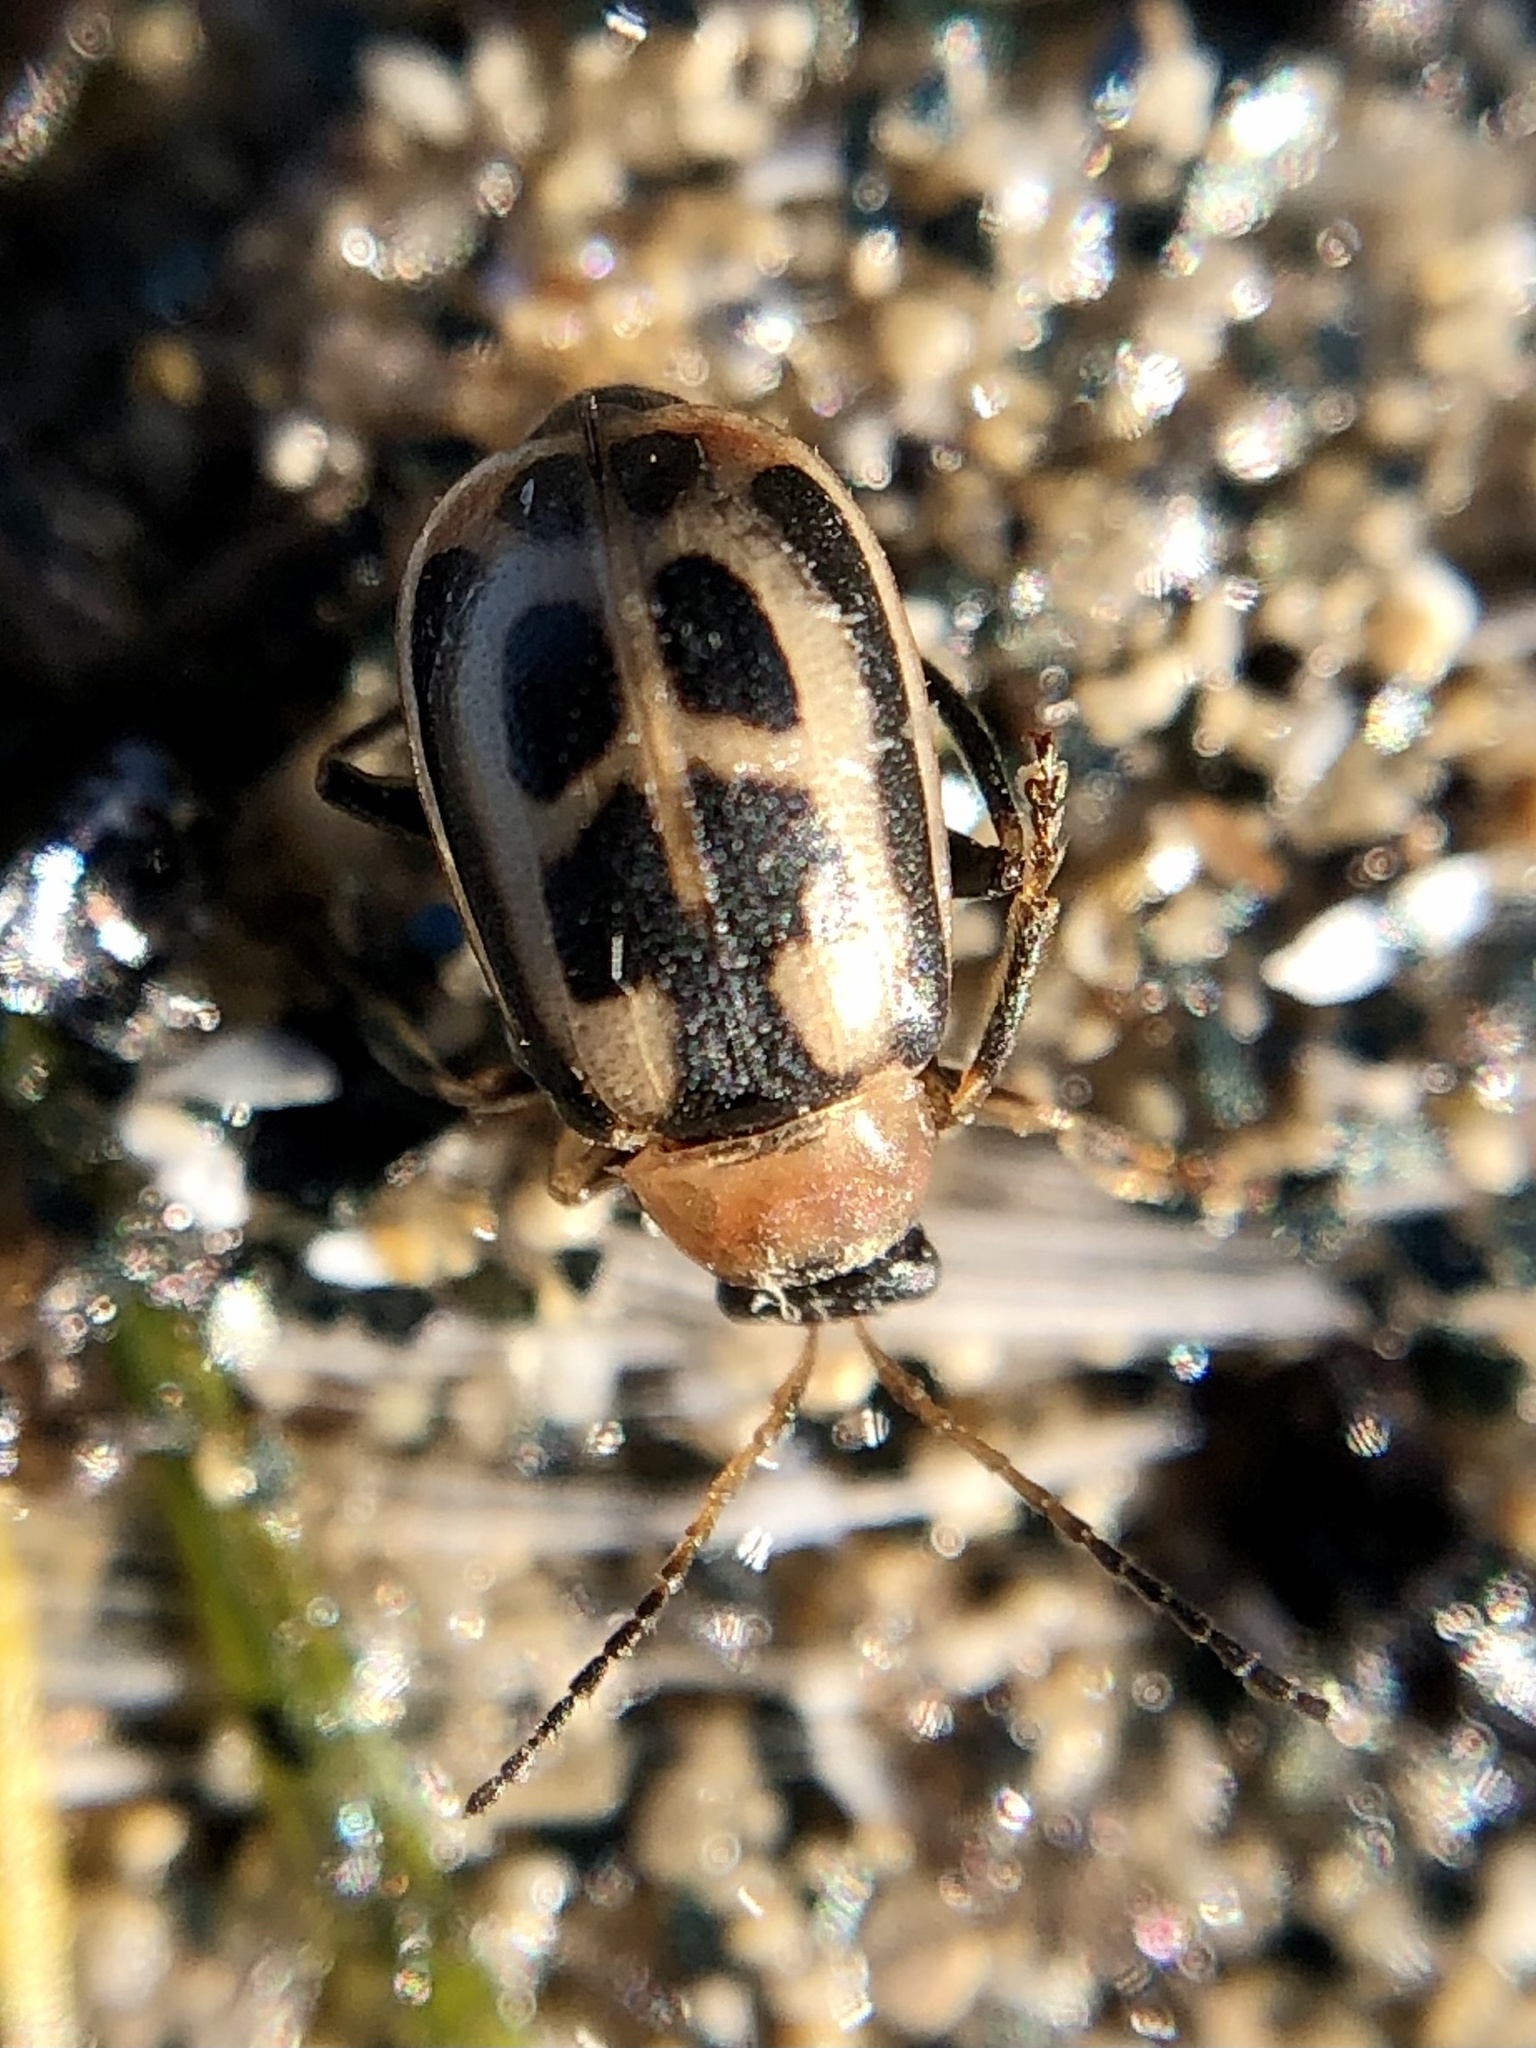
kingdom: Animalia
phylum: Arthropoda
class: Insecta
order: Coleoptera
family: Chrysomelidae
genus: Cerotoma
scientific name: Cerotoma trifurcata
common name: Bean leaf beetle
